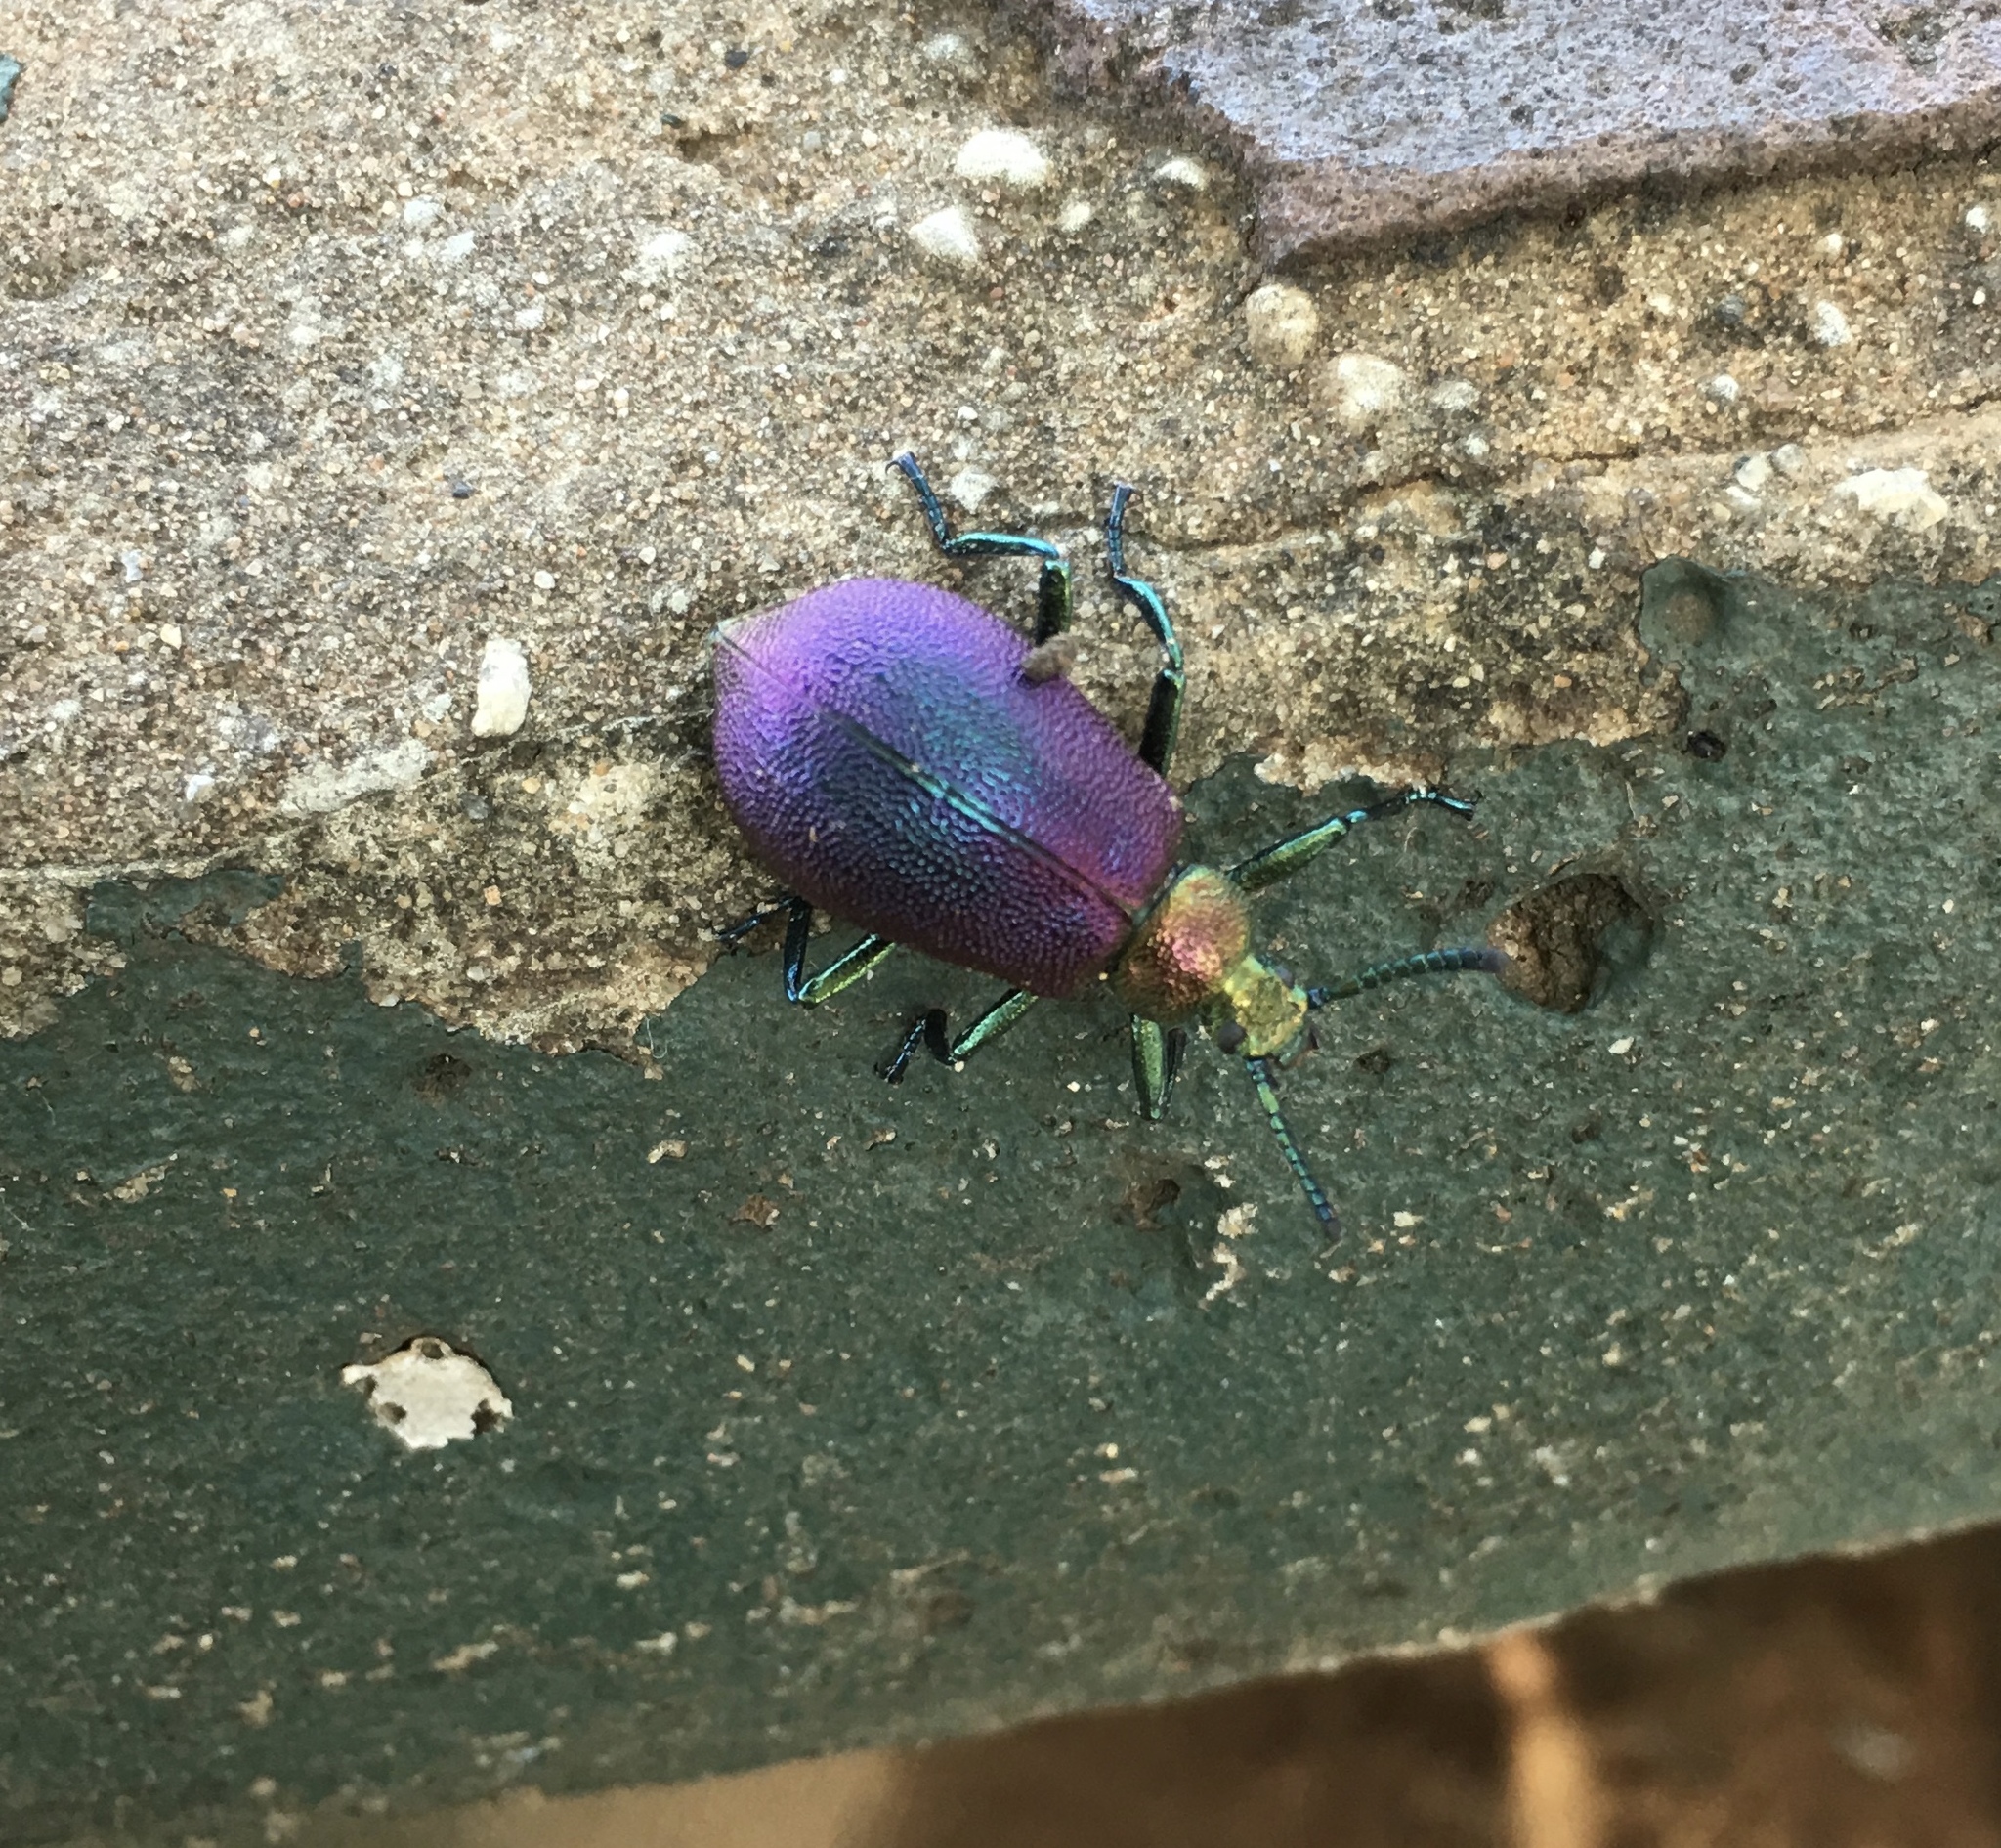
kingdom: Animalia
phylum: Arthropoda
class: Insecta
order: Coleoptera
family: Tenebrionidae
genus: Metallonotus
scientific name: Metallonotus
